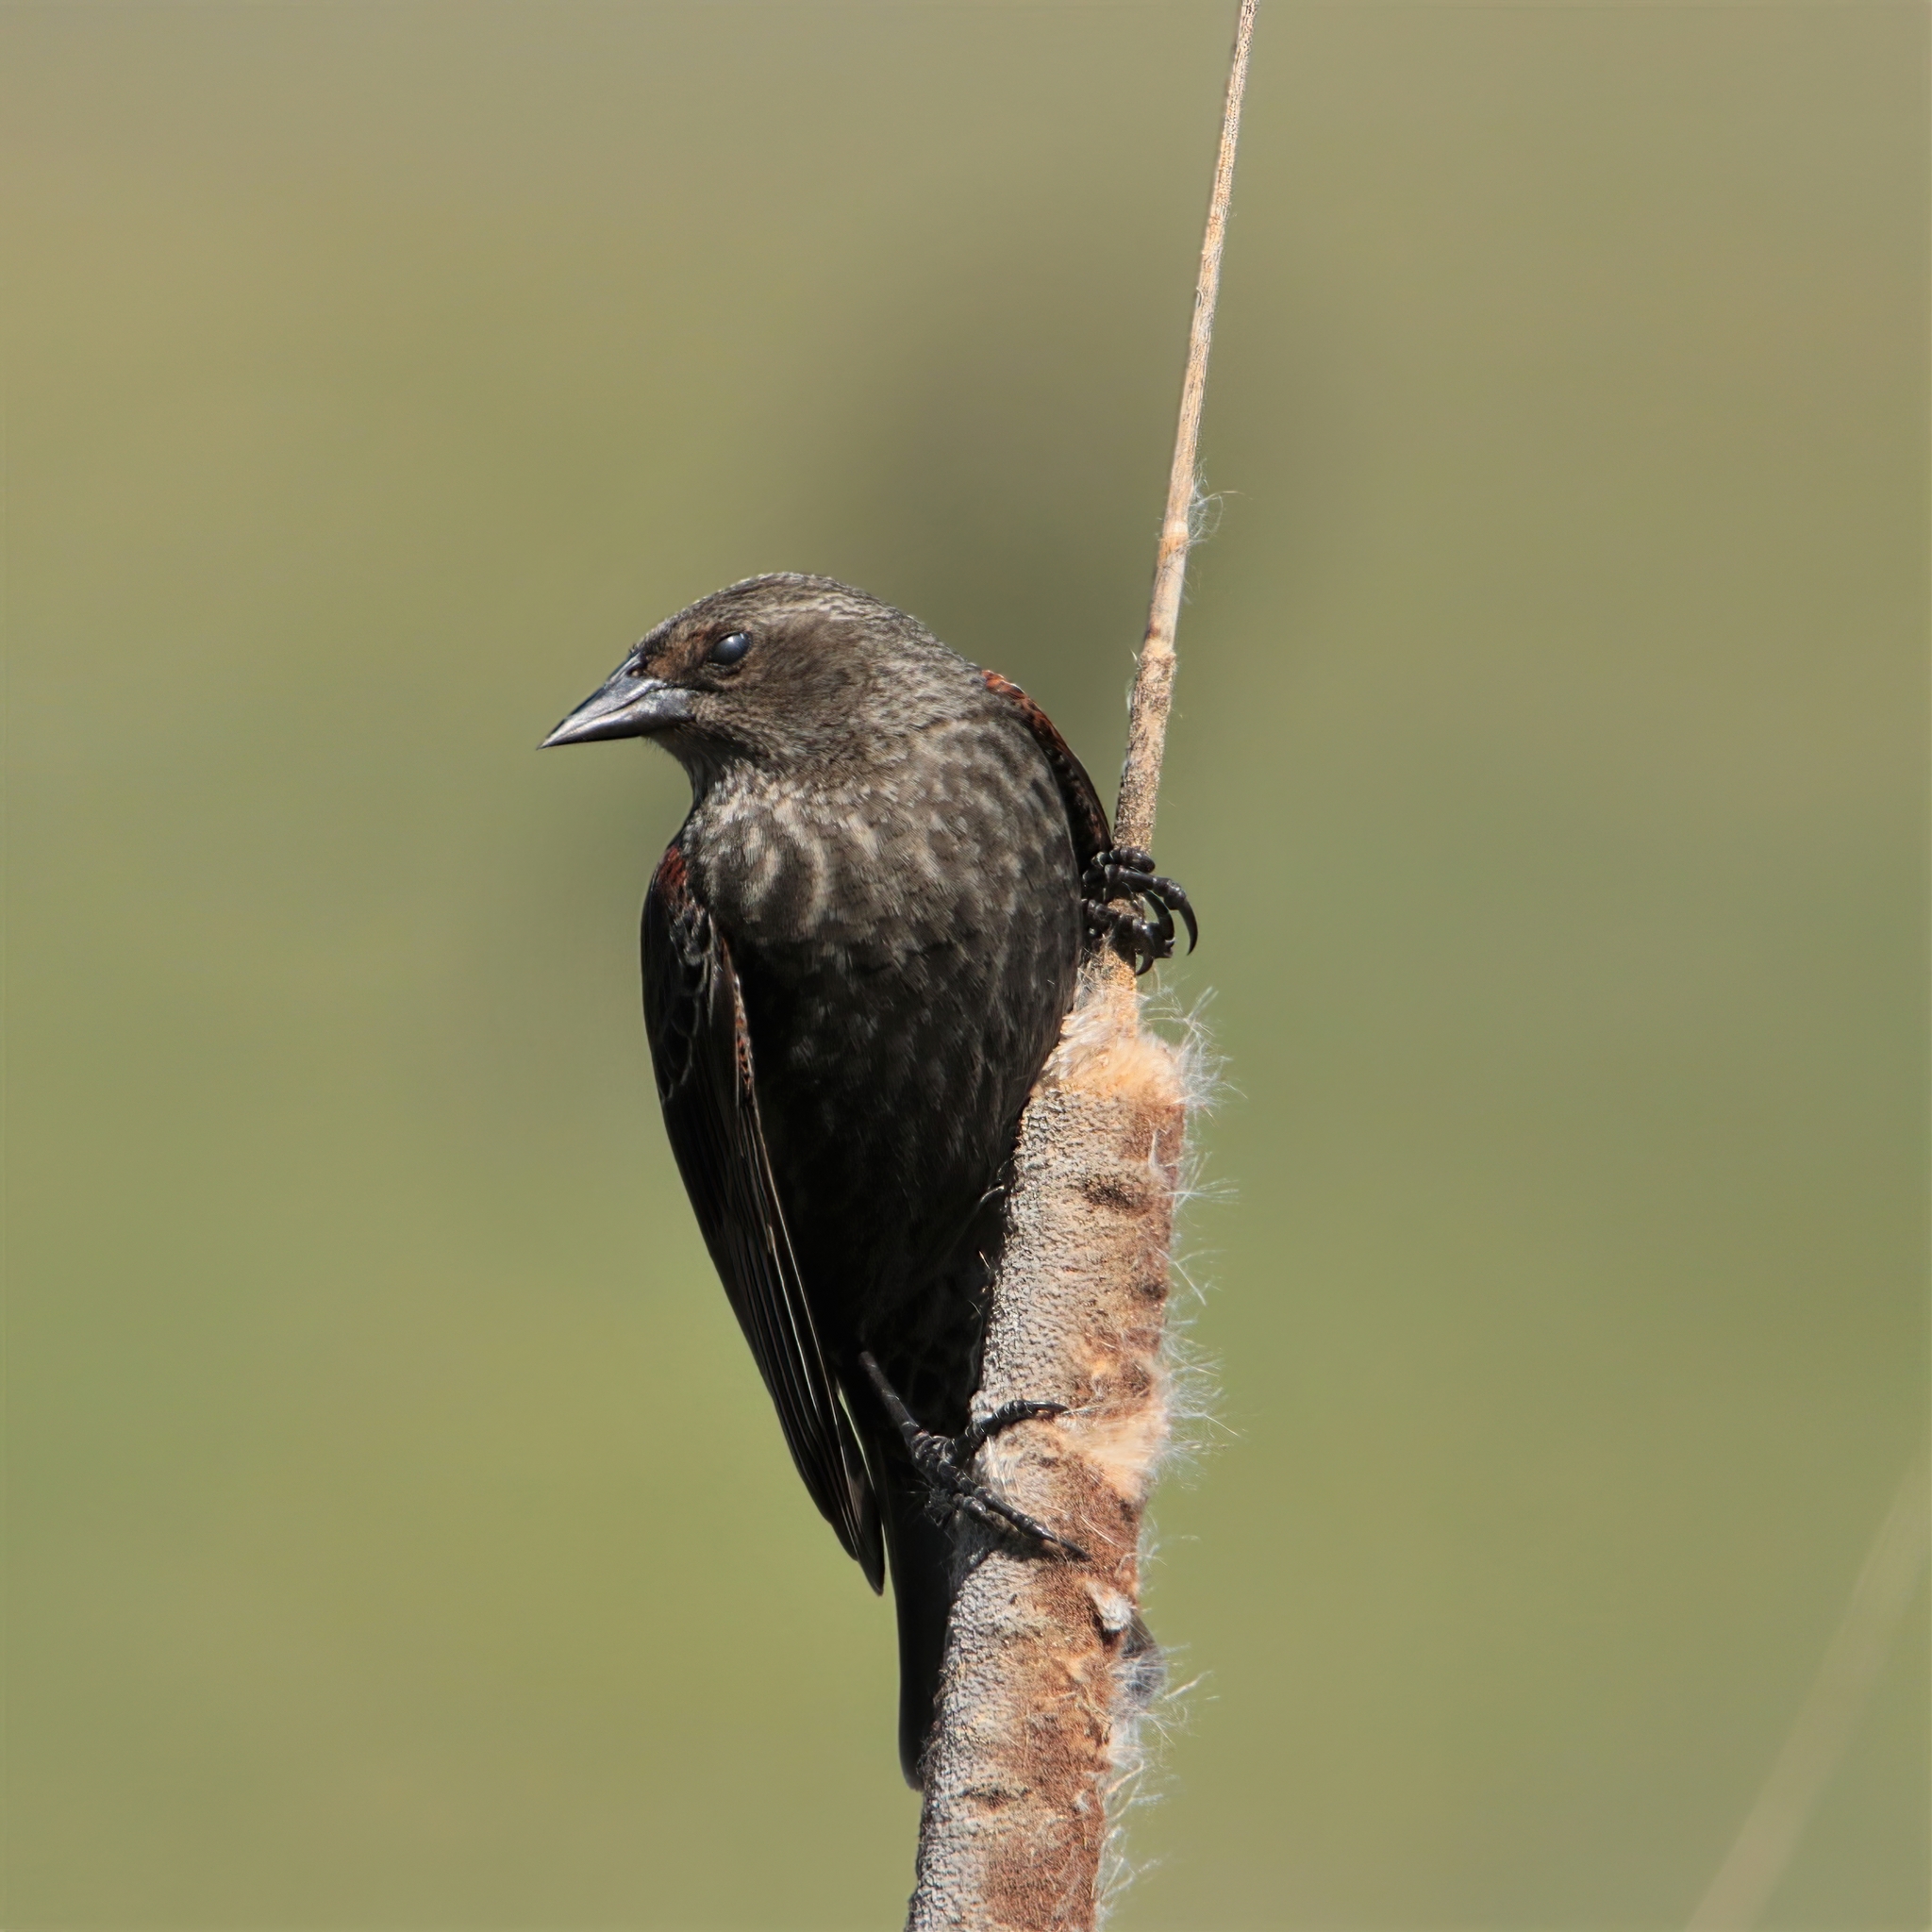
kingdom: Animalia
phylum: Chordata
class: Aves
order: Passeriformes
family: Icteridae
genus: Agelaius
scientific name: Agelaius phoeniceus
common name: Red-winged blackbird
